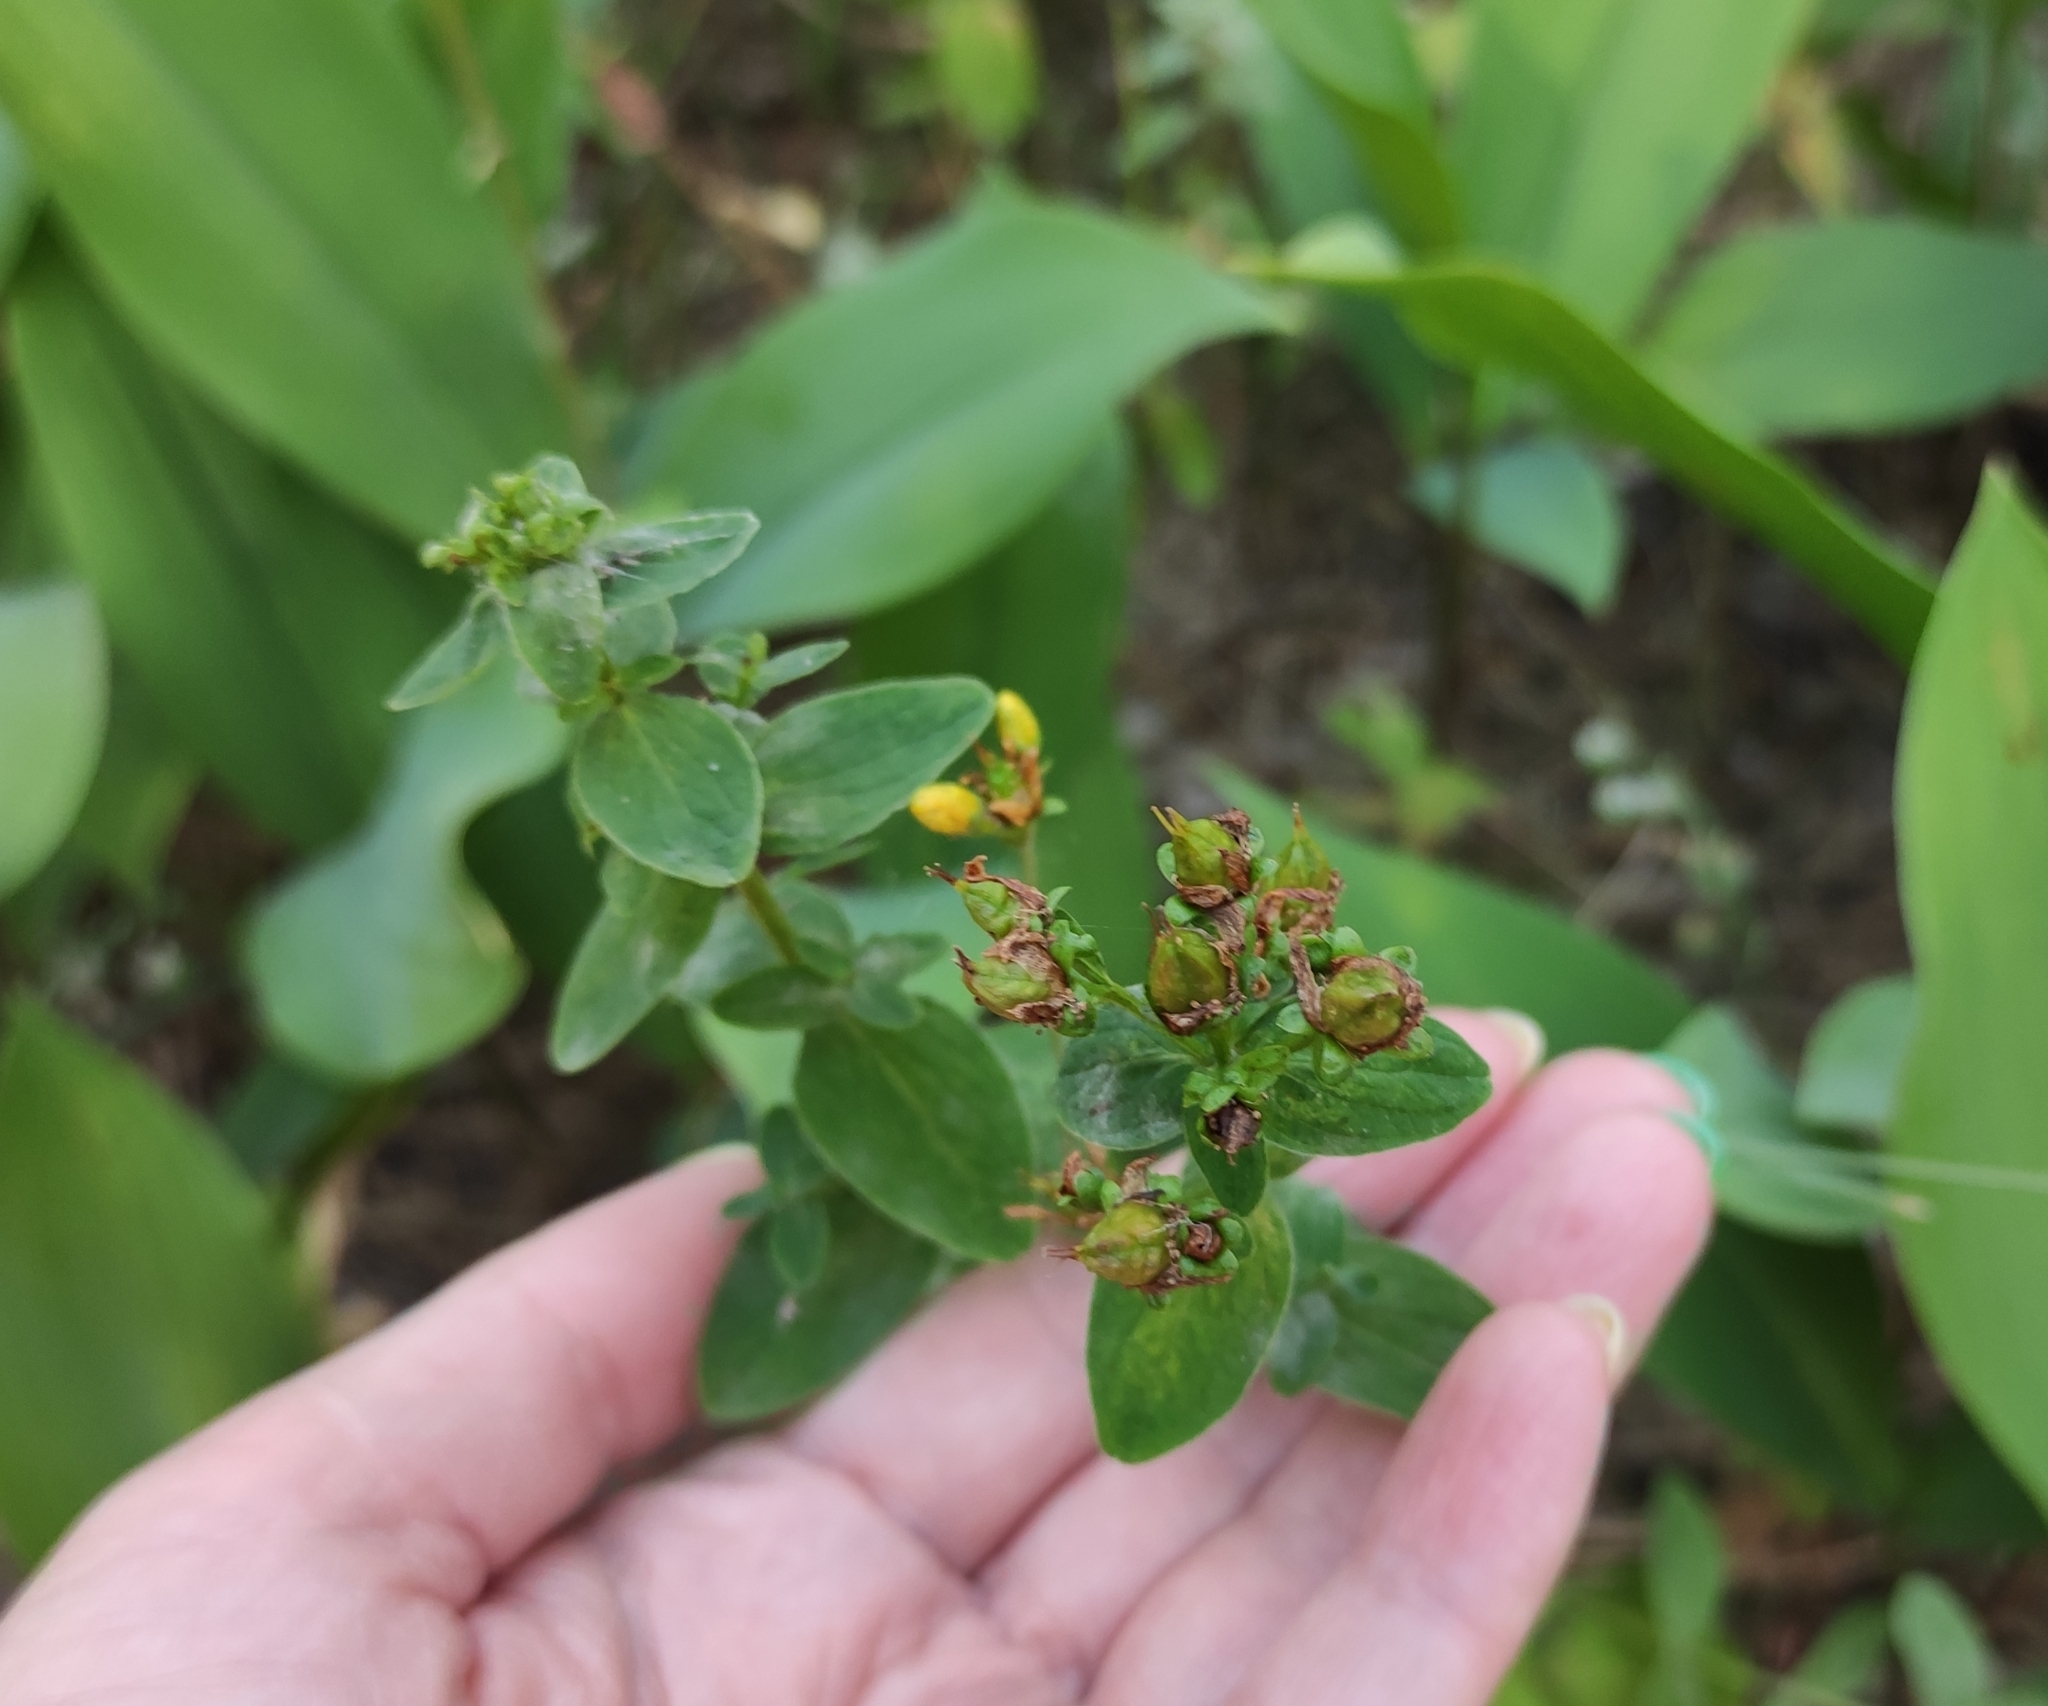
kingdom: Plantae
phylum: Tracheophyta
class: Magnoliopsida
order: Malpighiales
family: Hypericaceae
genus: Hypericum
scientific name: Hypericum maculatum
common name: Imperforate st. john's-wort
